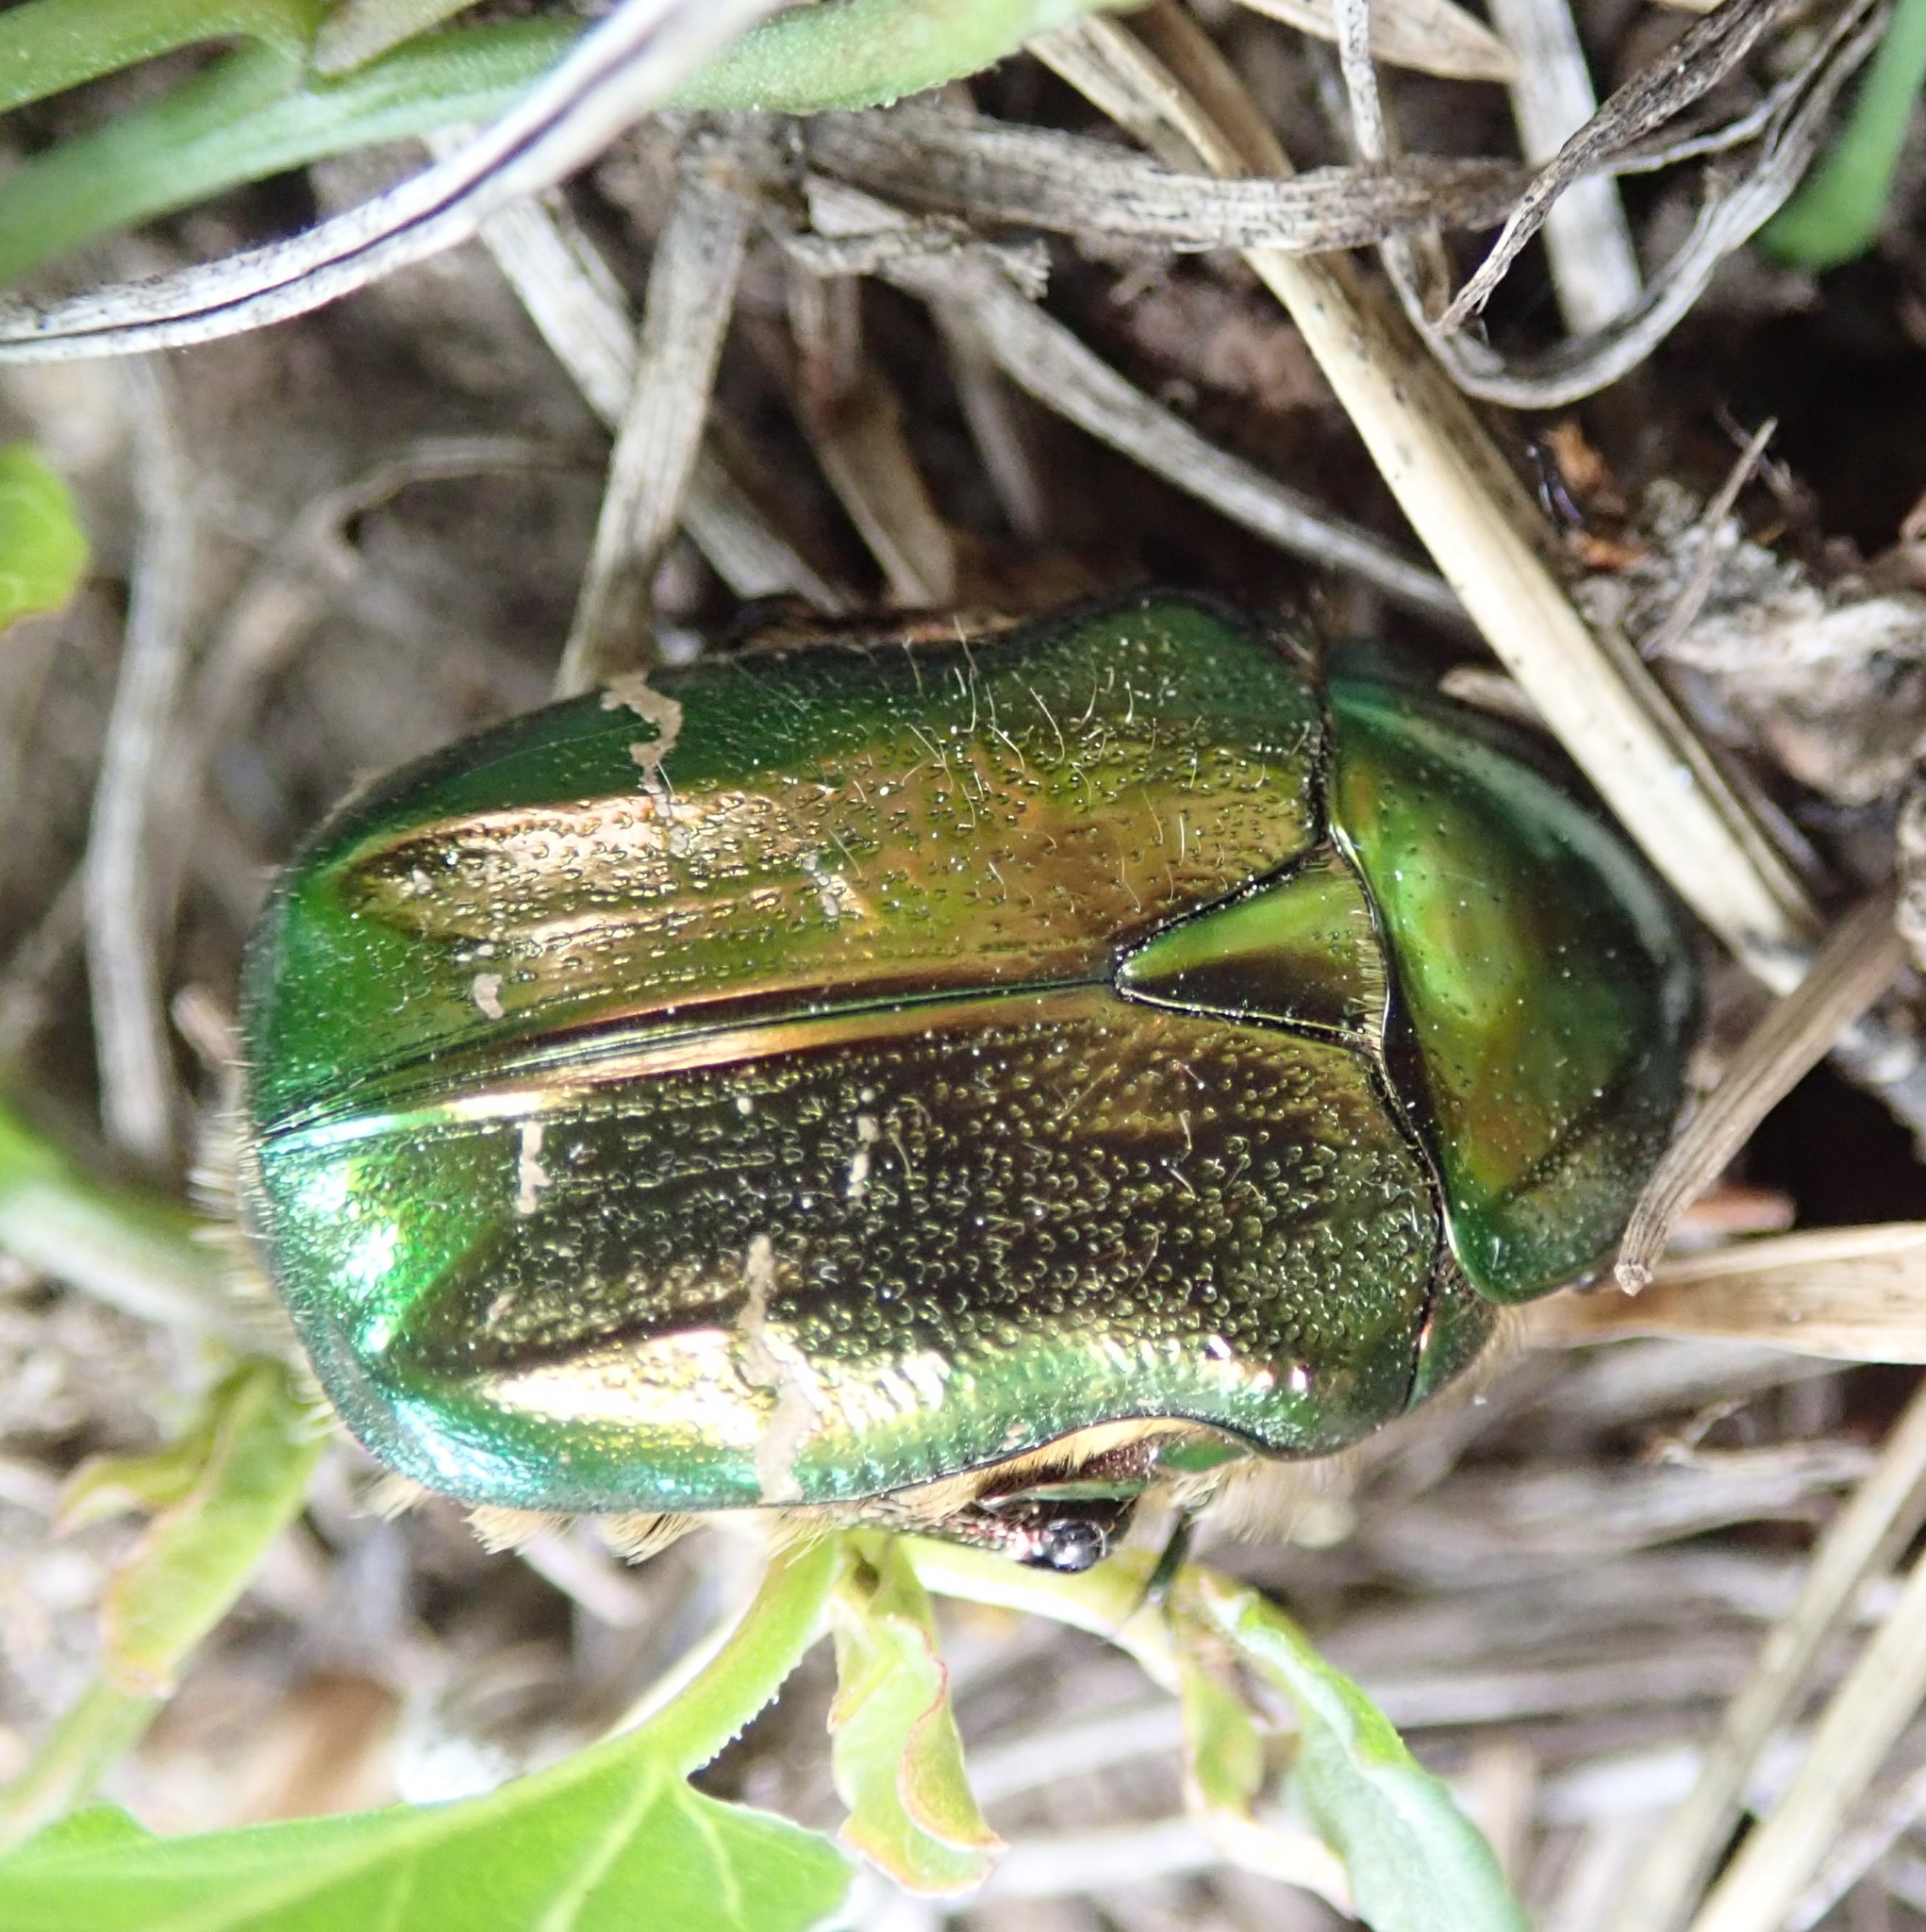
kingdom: Animalia
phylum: Arthropoda
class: Insecta
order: Coleoptera
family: Scarabaeidae
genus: Cetonia
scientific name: Cetonia aurata
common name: Rose chafer
